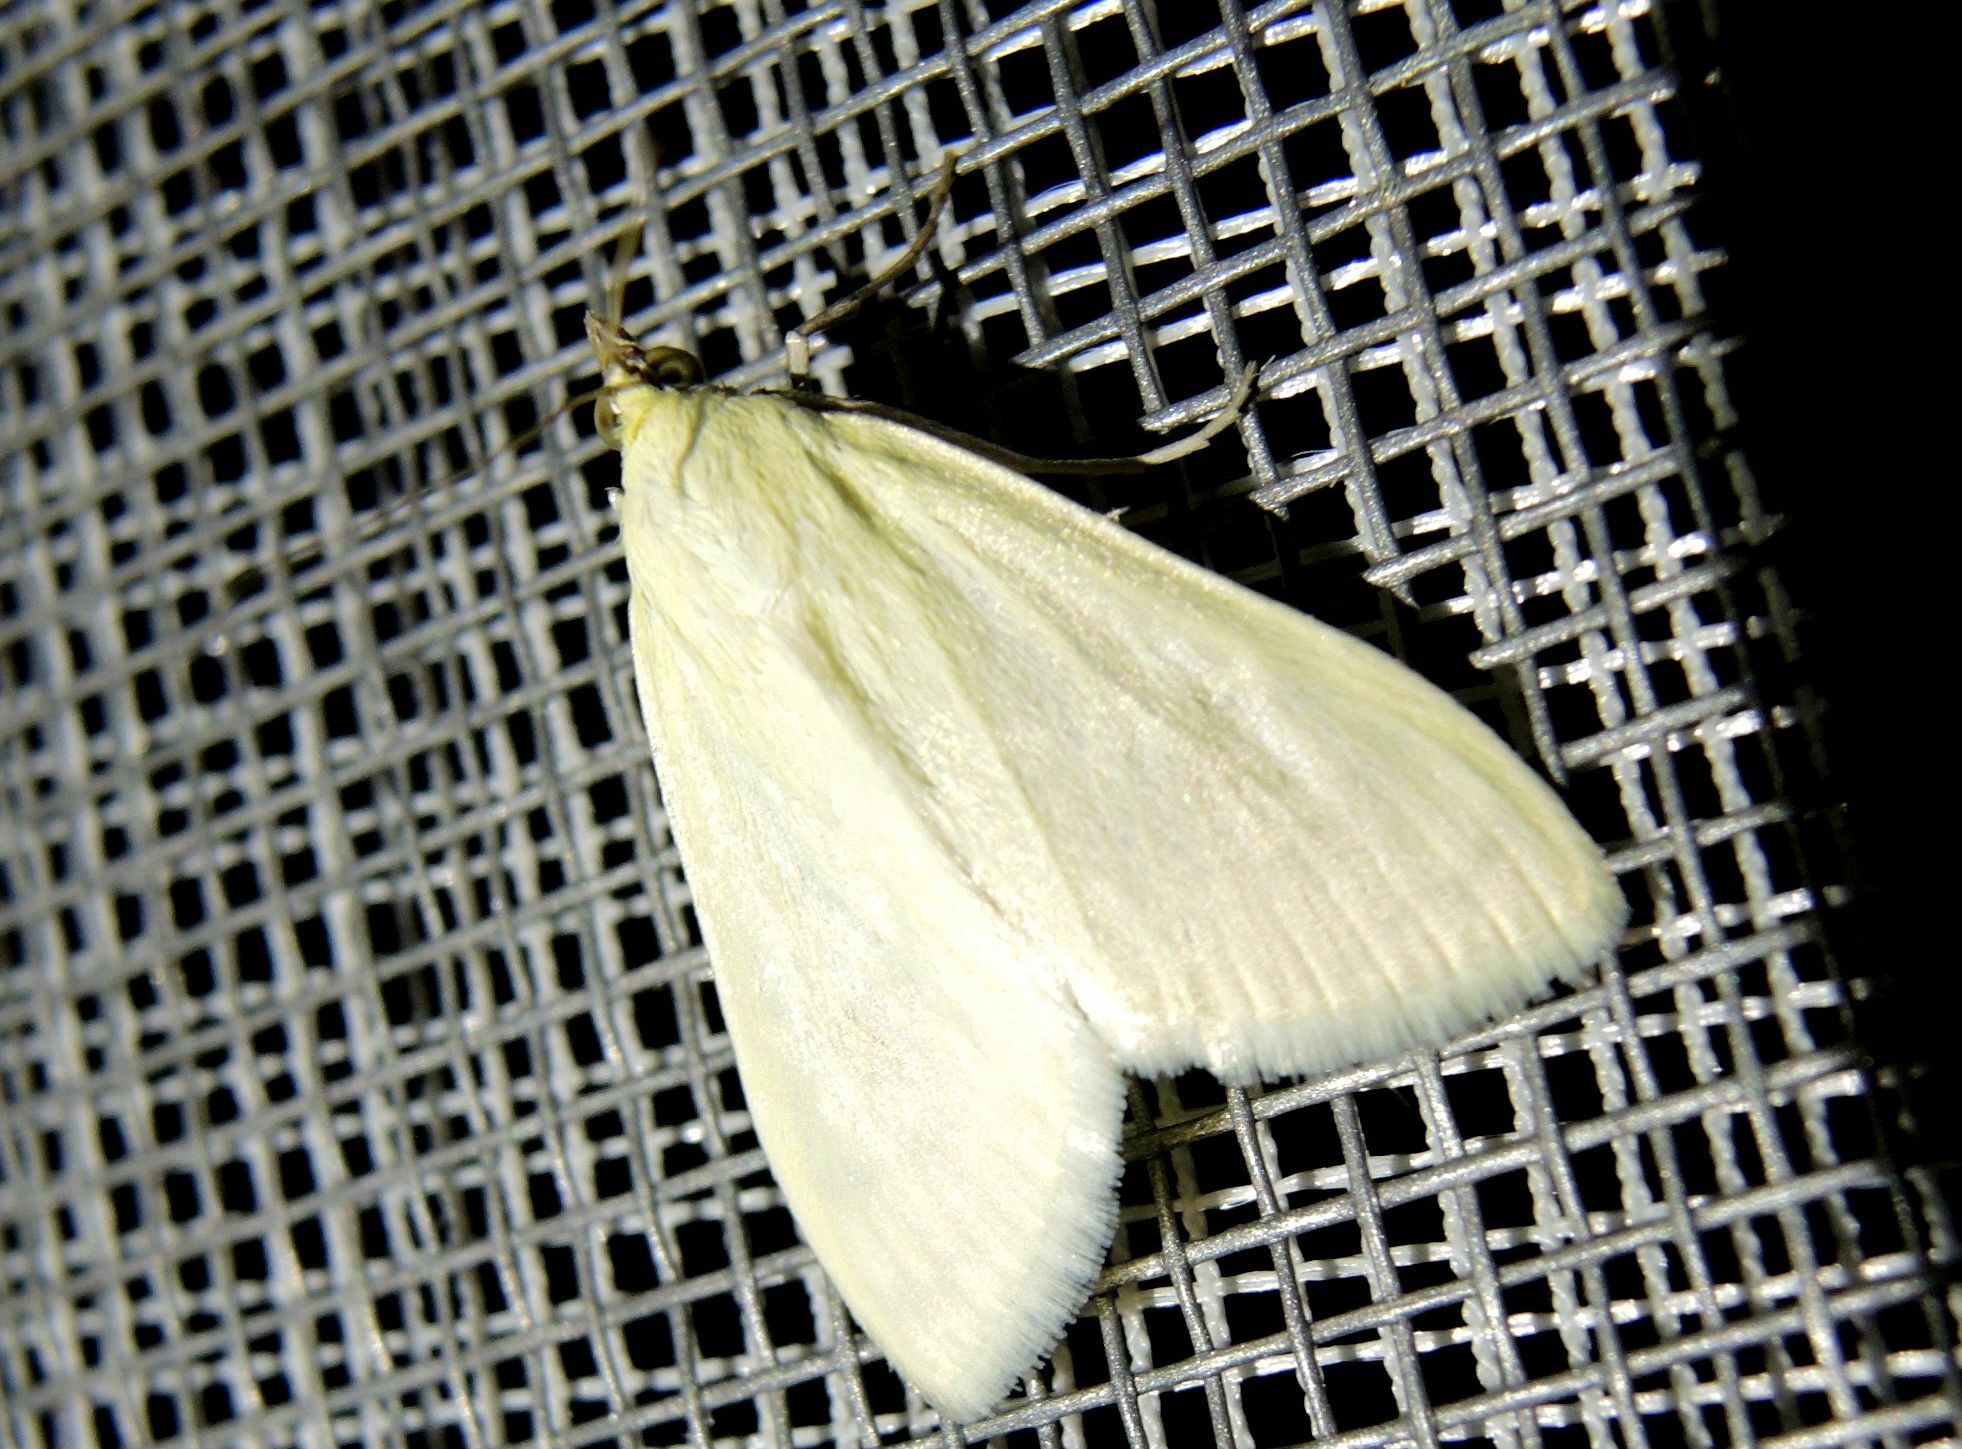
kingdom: Animalia
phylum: Arthropoda
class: Insecta
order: Lepidoptera
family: Crambidae
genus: Sitochroa
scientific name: Sitochroa palealis
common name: Greenish-yellow sitochroa moth
